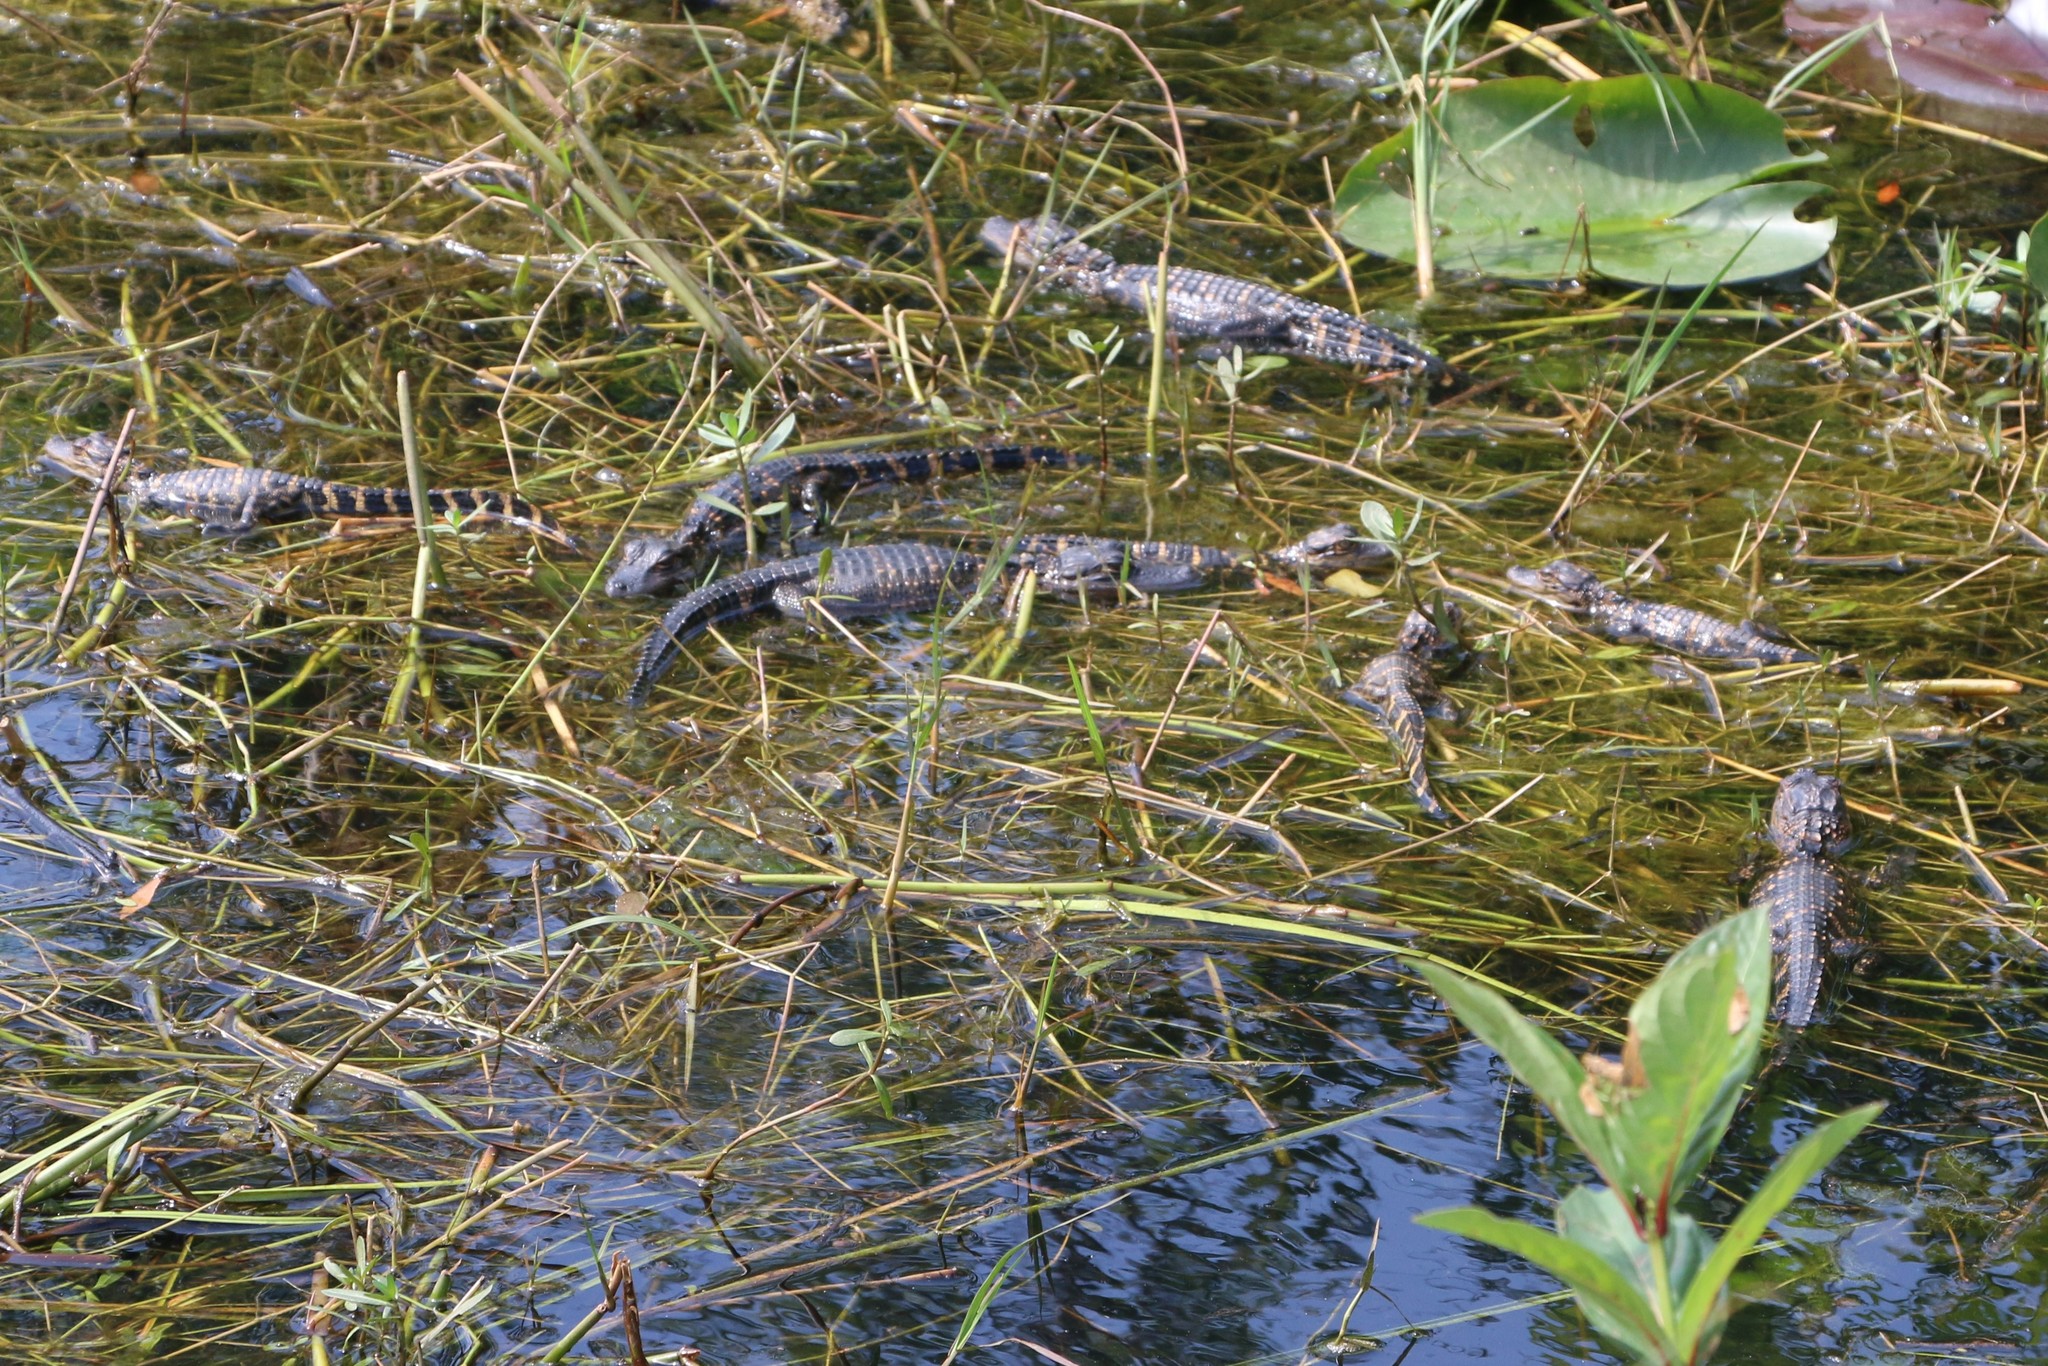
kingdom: Animalia
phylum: Chordata
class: Crocodylia
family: Alligatoridae
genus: Alligator
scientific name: Alligator mississippiensis
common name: American alligator
